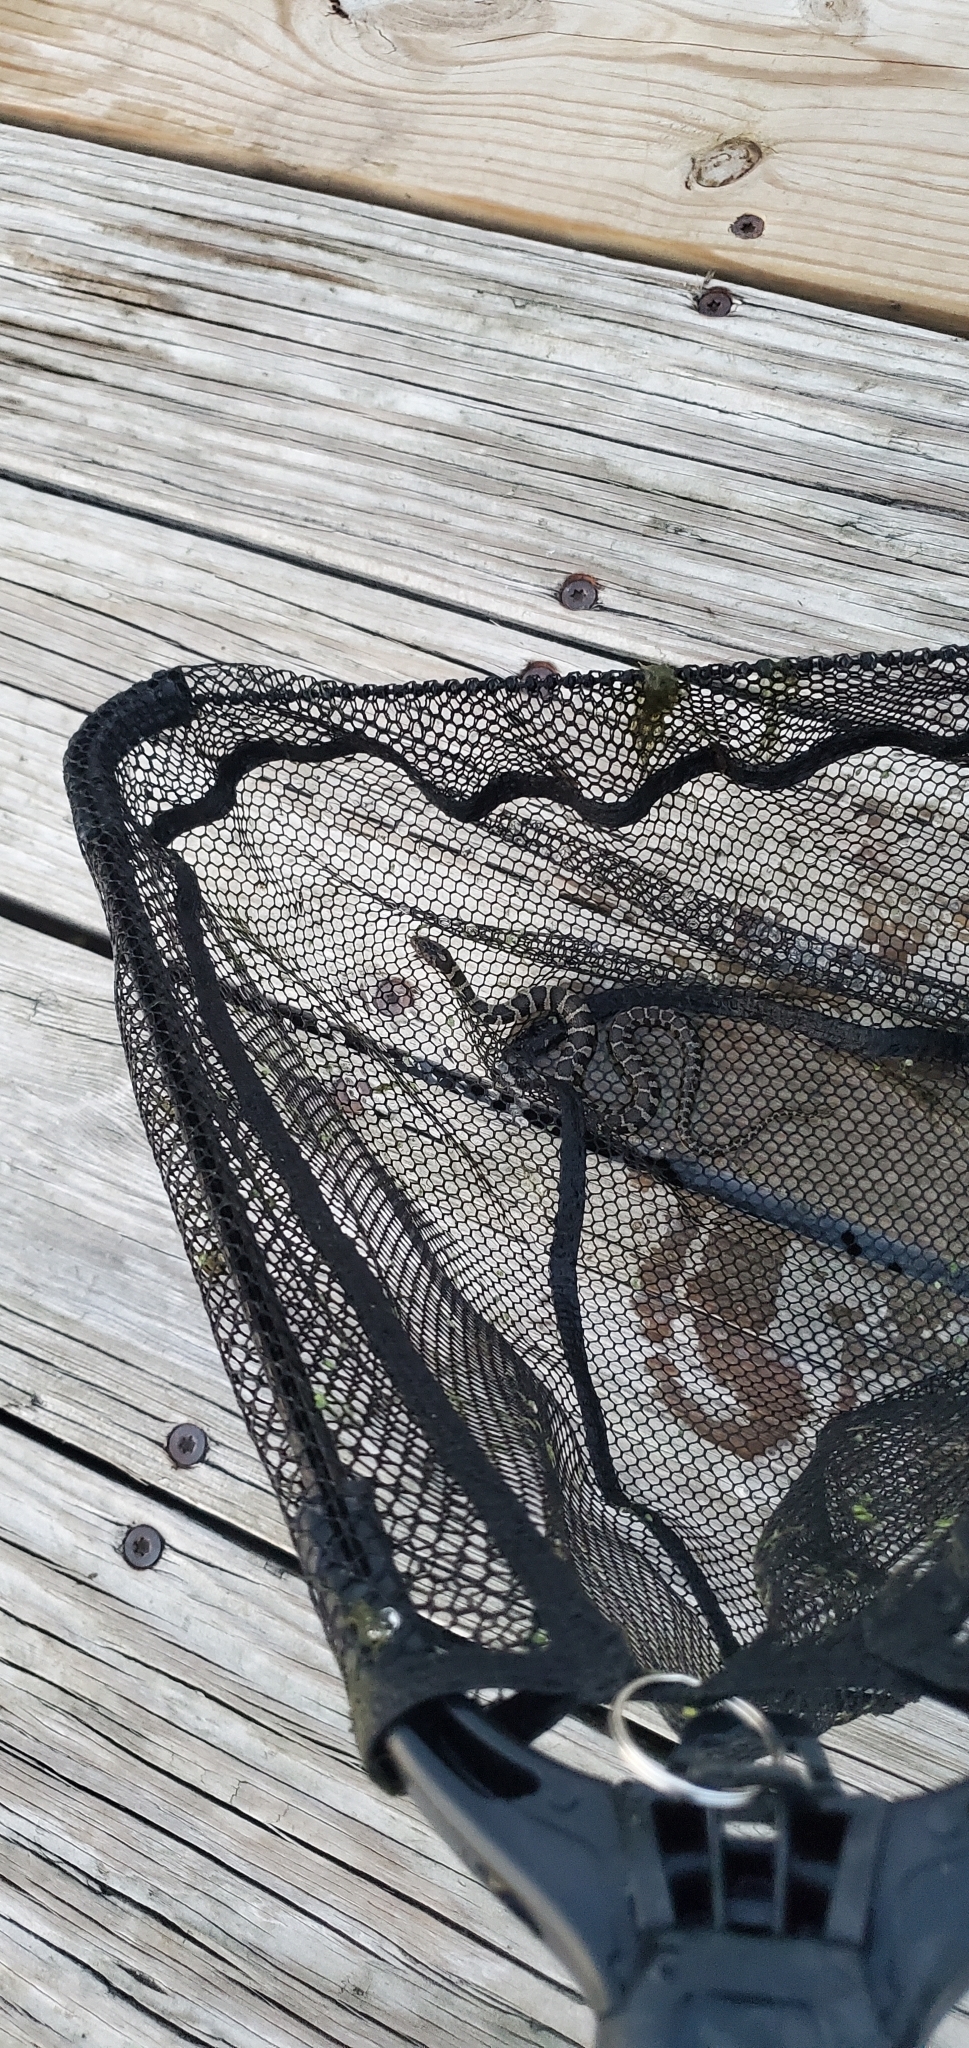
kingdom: Animalia
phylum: Chordata
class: Squamata
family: Colubridae
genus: Nerodia
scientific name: Nerodia sipedon
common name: Northern water snake
